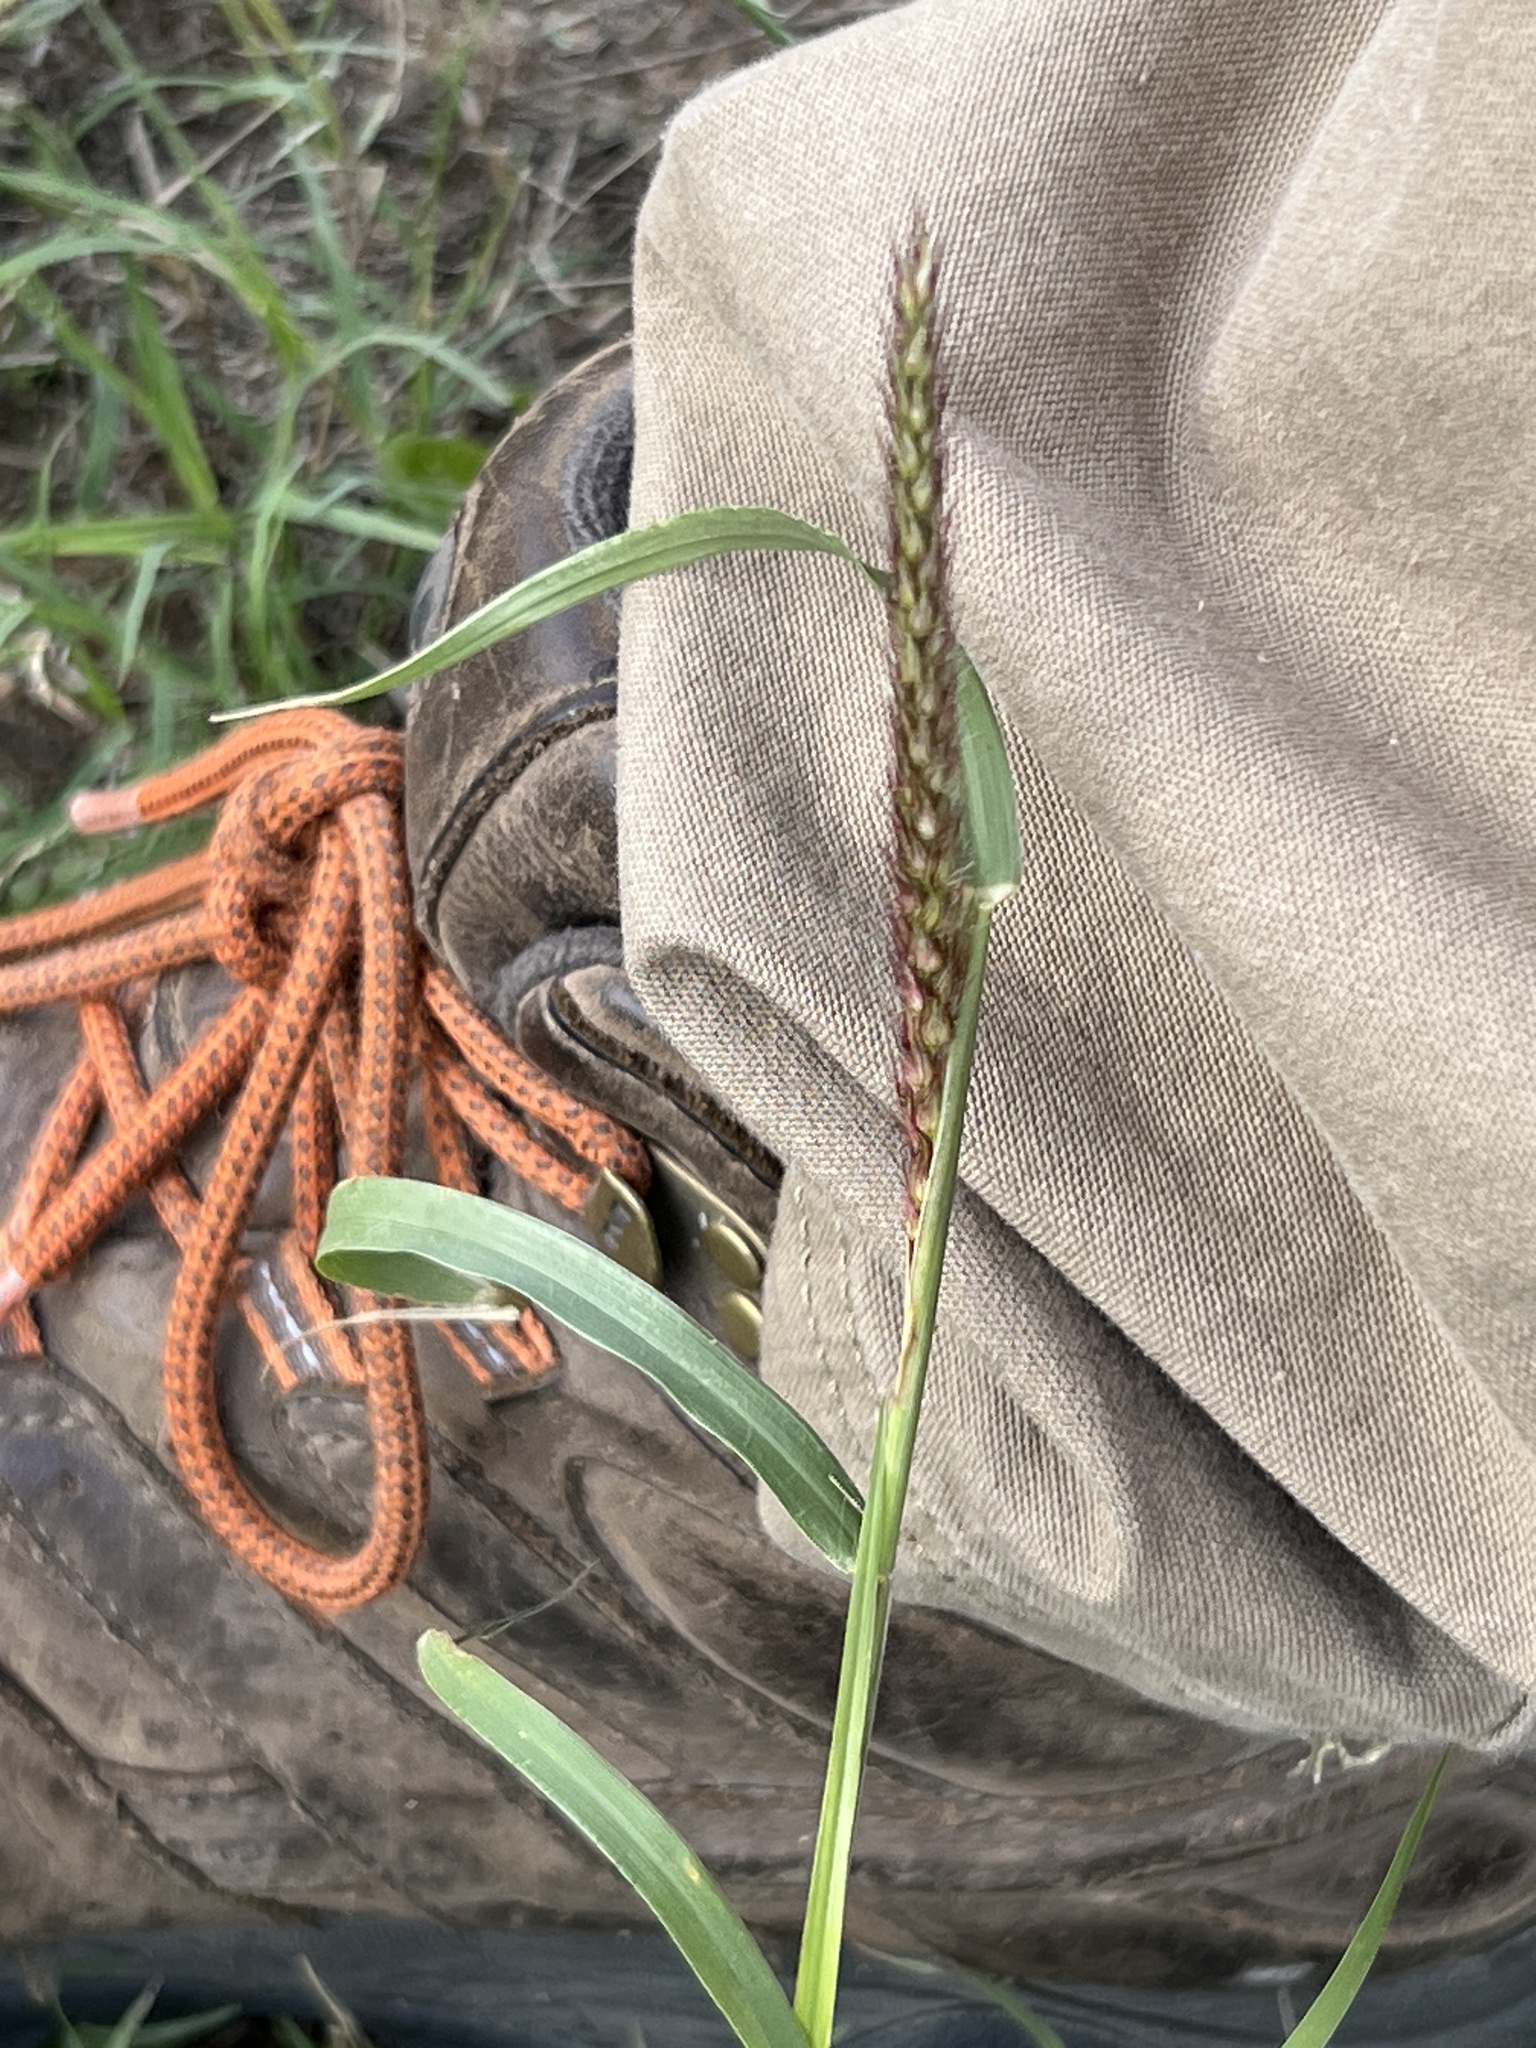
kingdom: Plantae
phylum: Tracheophyta
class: Liliopsida
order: Poales
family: Poaceae
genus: Cenchrus
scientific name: Cenchrus ciliaris
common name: Buffelgrass
